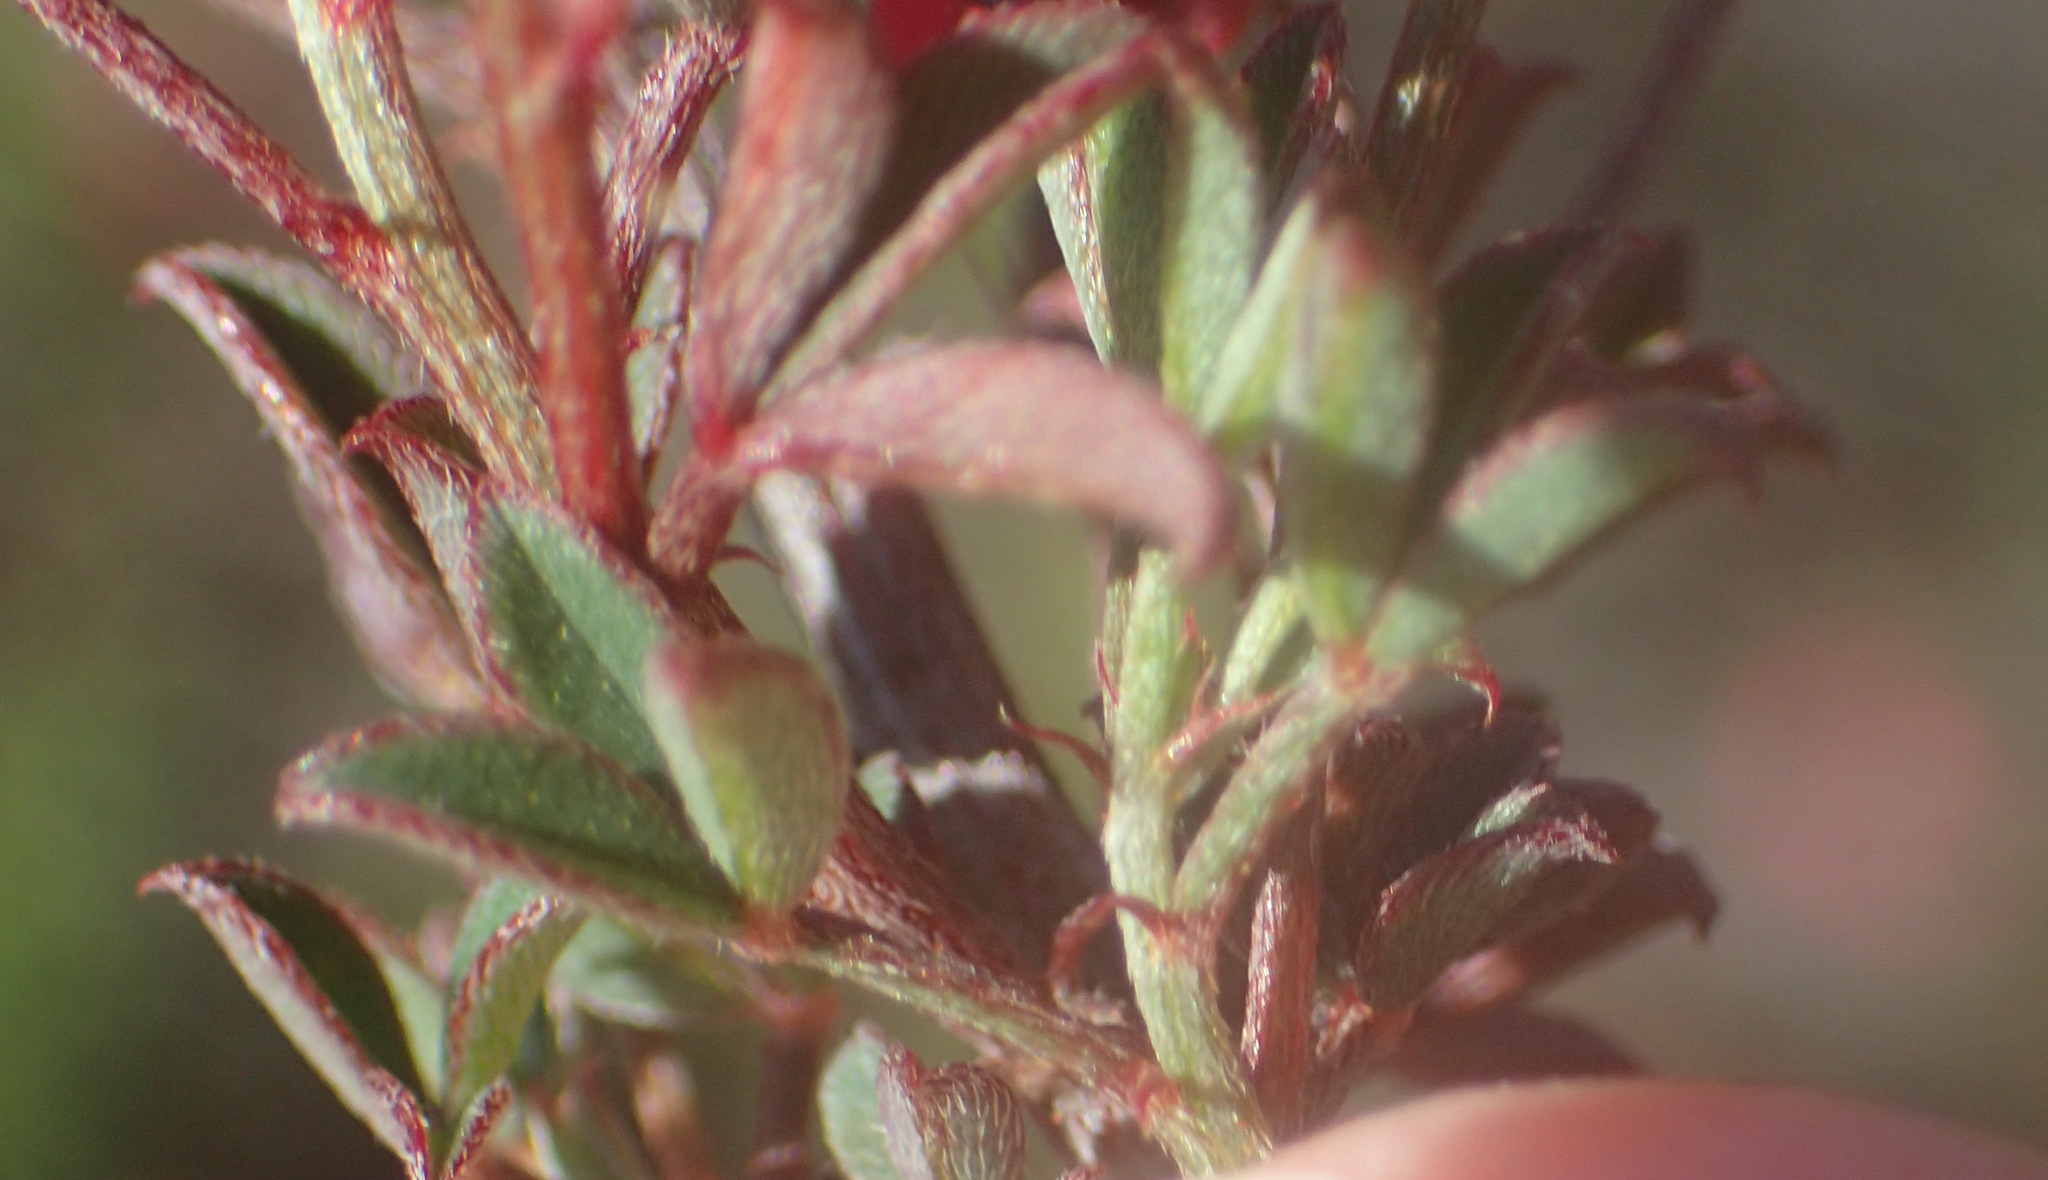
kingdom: Plantae
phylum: Tracheophyta
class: Magnoliopsida
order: Fabales
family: Fabaceae
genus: Indigofera
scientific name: Indigofera heterophylla
